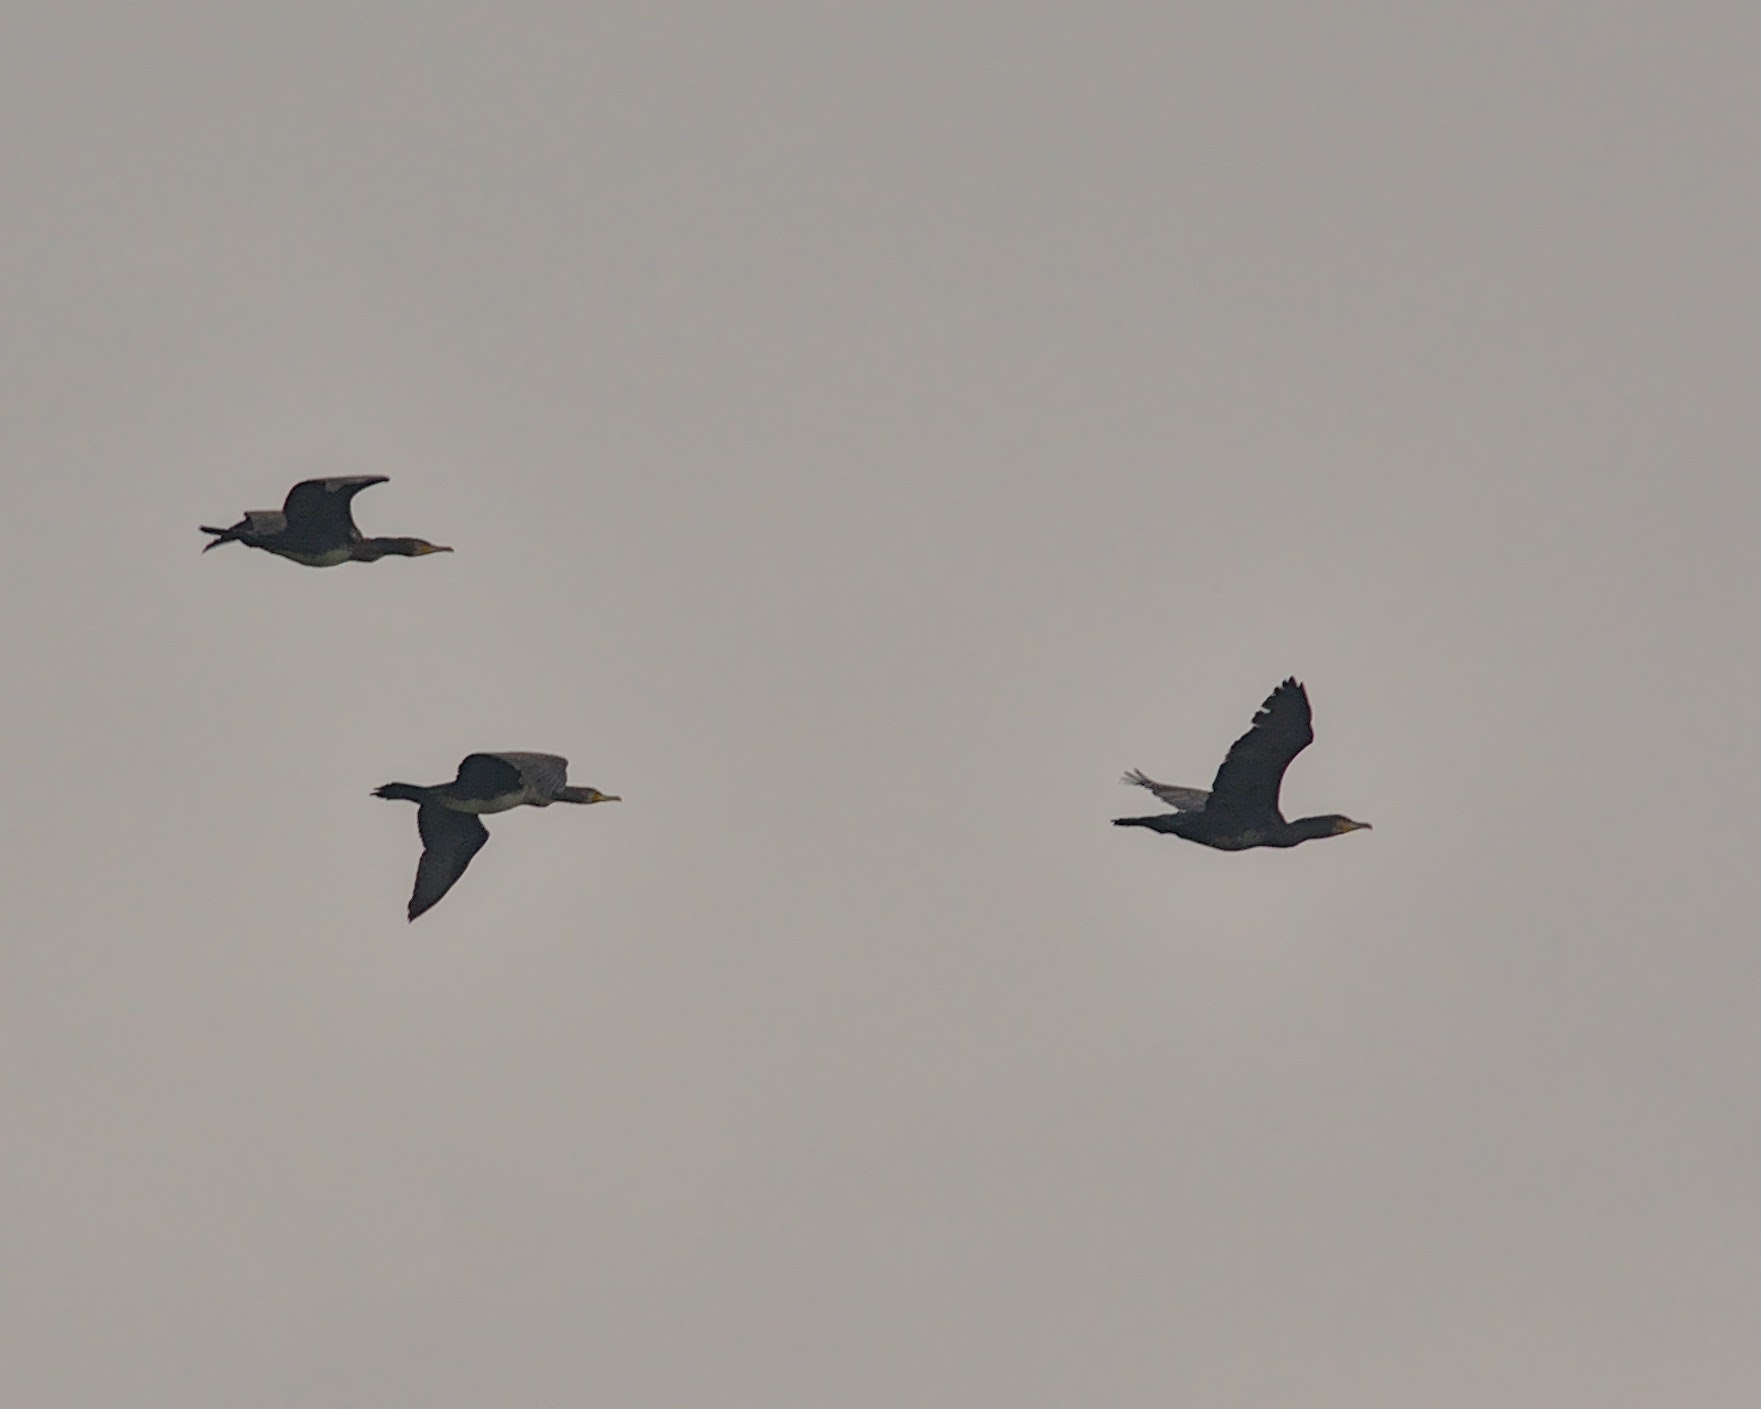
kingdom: Animalia
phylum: Chordata
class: Aves
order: Suliformes
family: Phalacrocoracidae
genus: Phalacrocorax
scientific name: Phalacrocorax carbo
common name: Great cormorant
